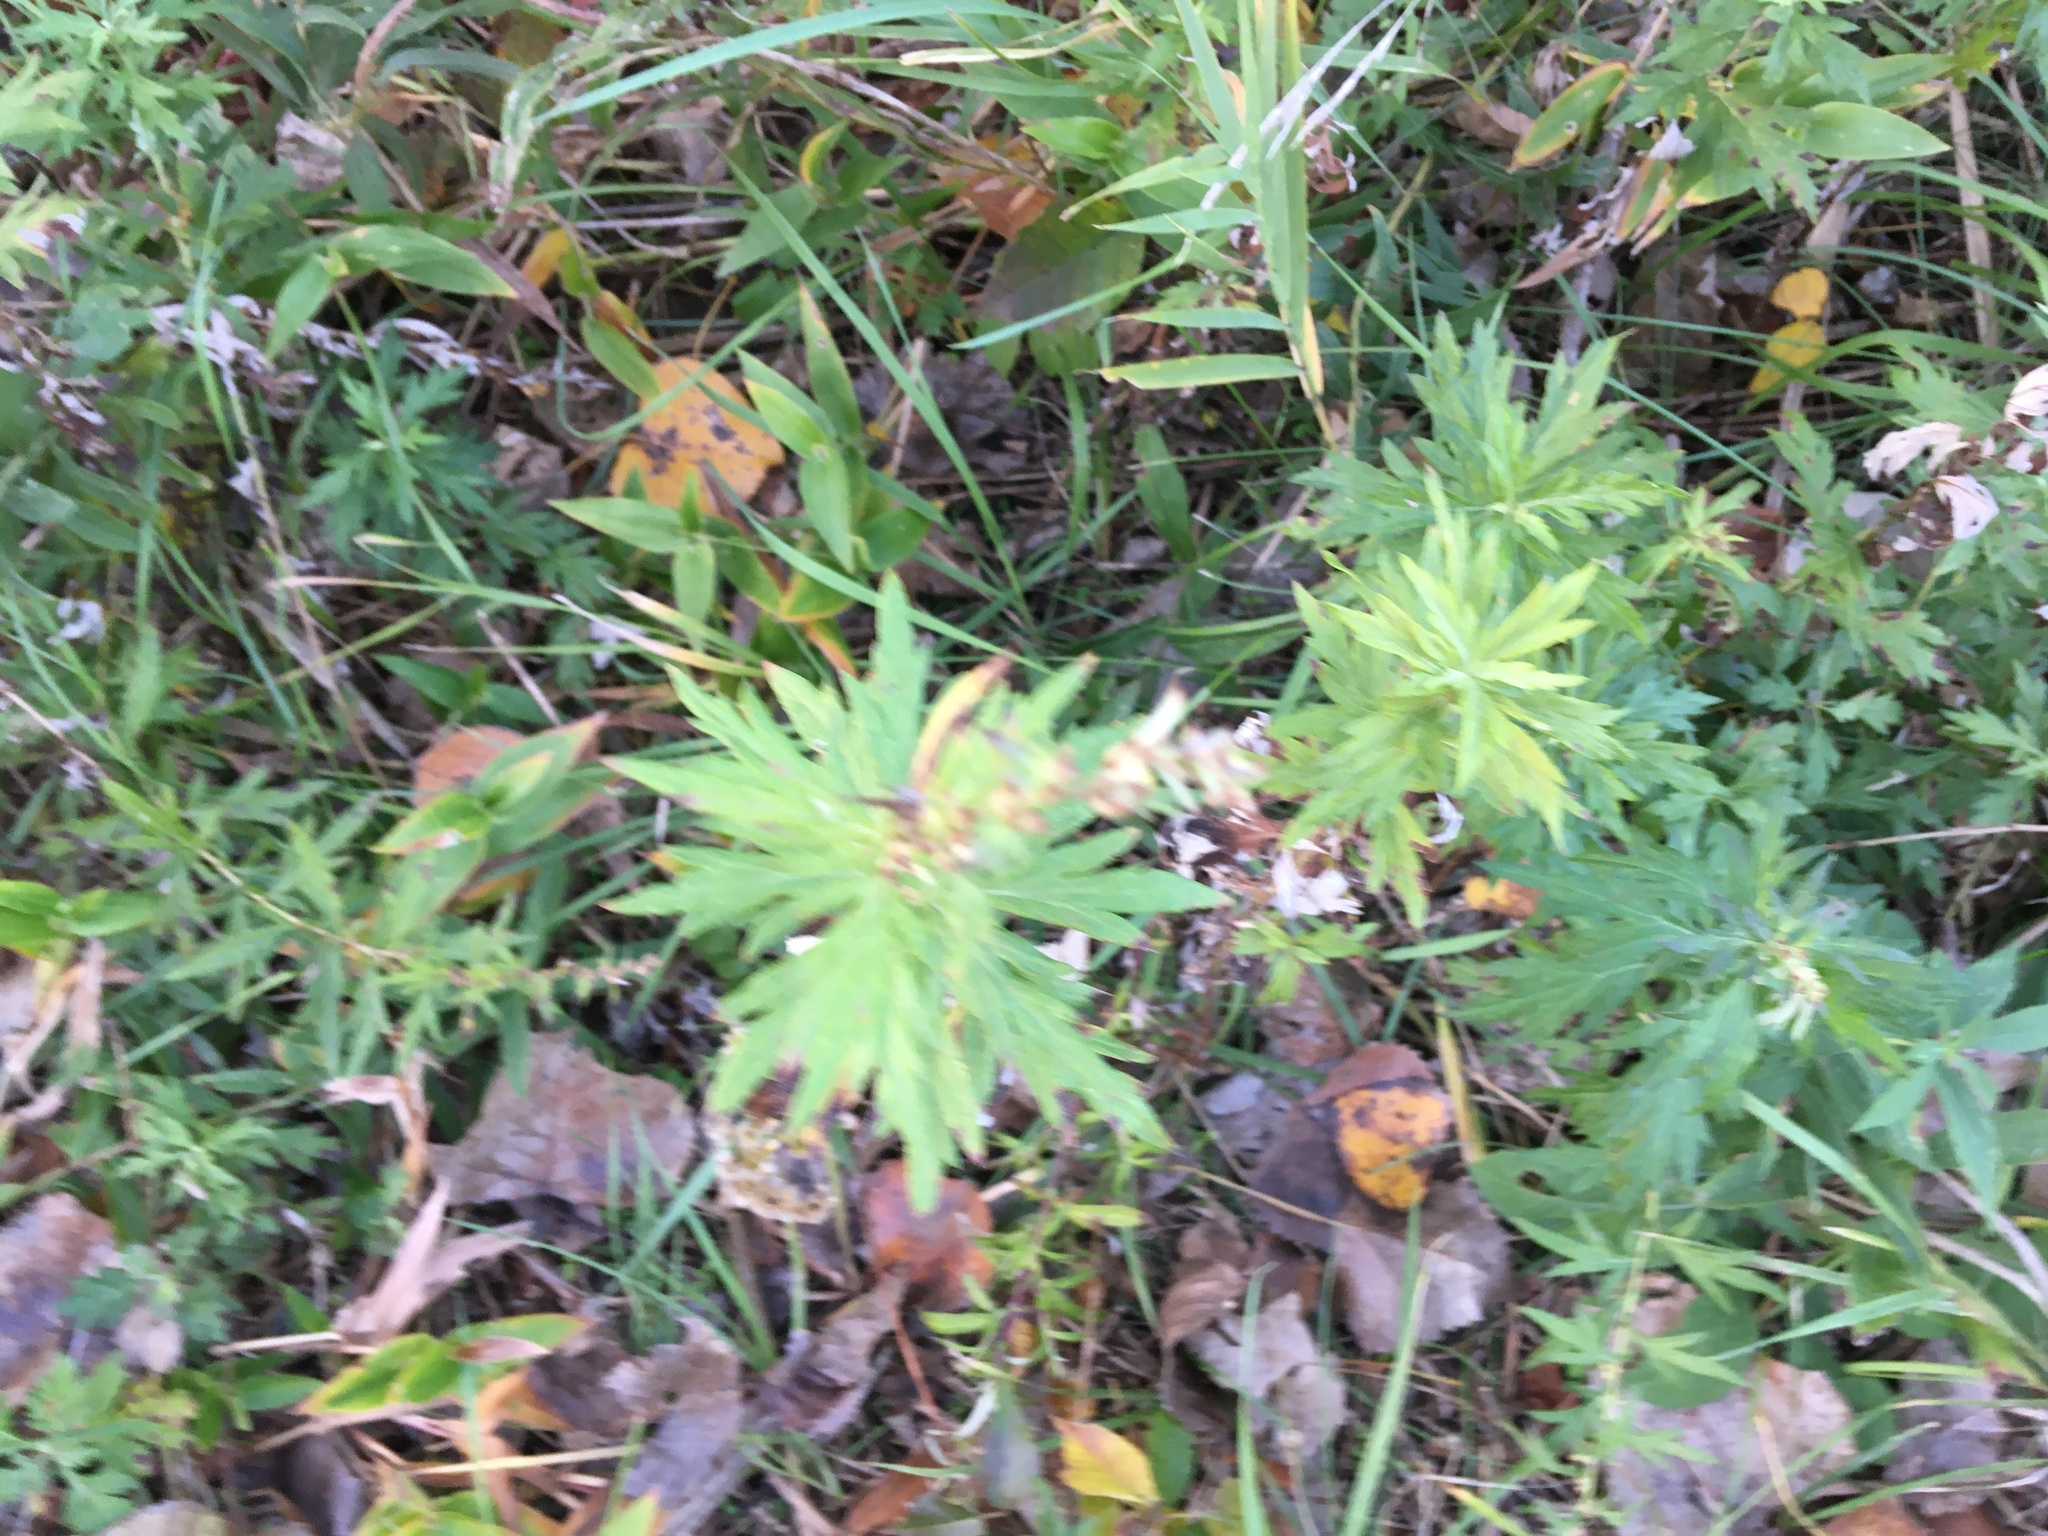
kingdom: Plantae
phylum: Tracheophyta
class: Magnoliopsida
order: Asterales
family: Asteraceae
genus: Artemisia
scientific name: Artemisia vulgaris
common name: Mugwort
